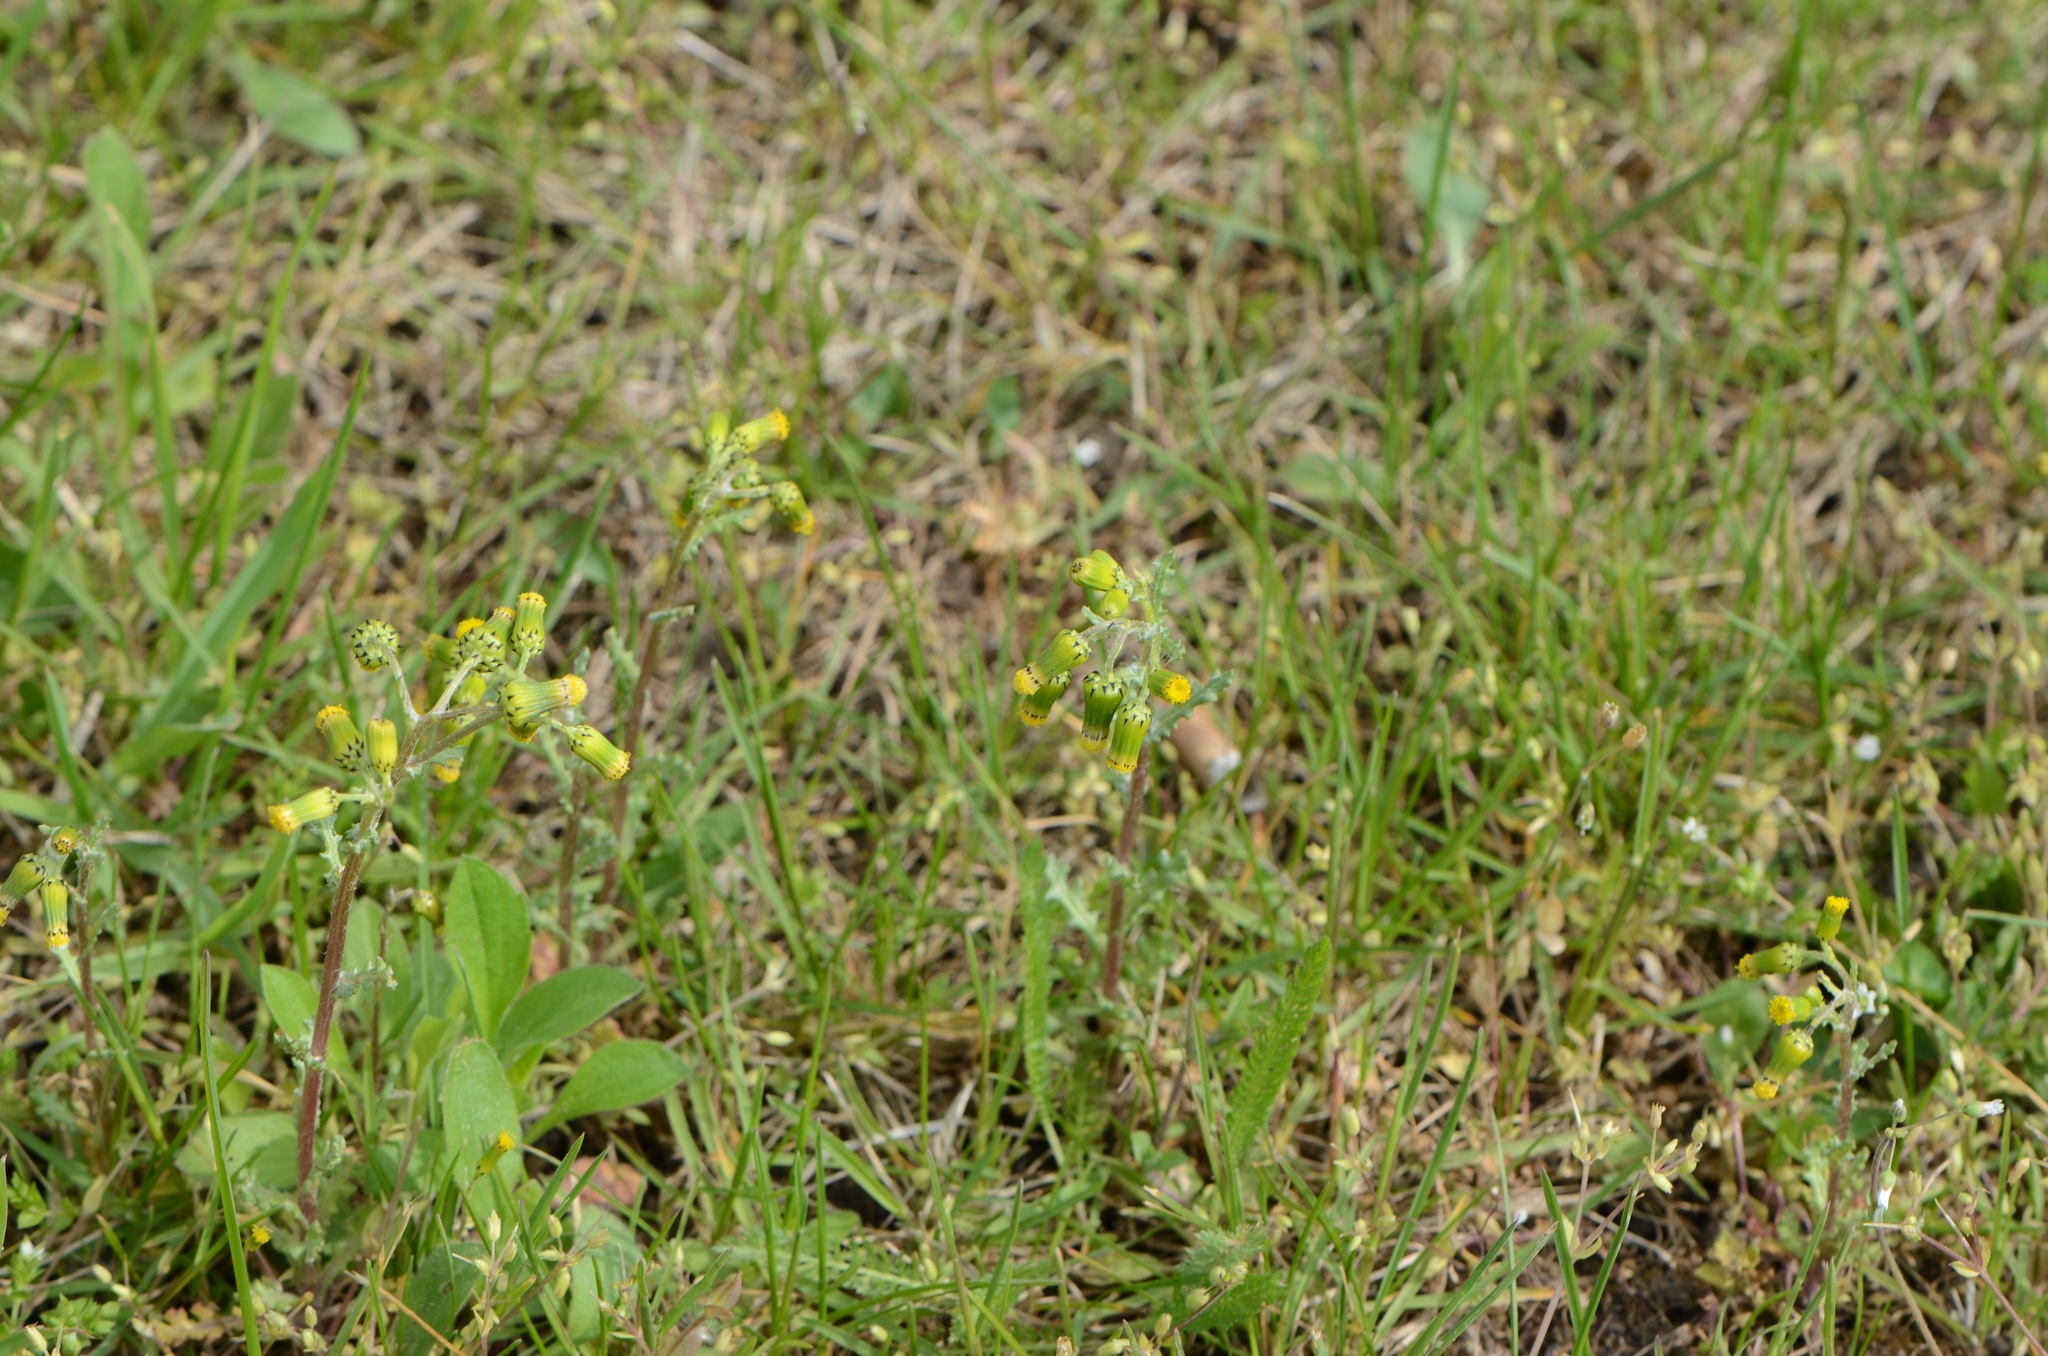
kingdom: Plantae
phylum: Tracheophyta
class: Magnoliopsida
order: Asterales
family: Asteraceae
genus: Senecio
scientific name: Senecio vulgaris
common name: Old-man-in-the-spring
